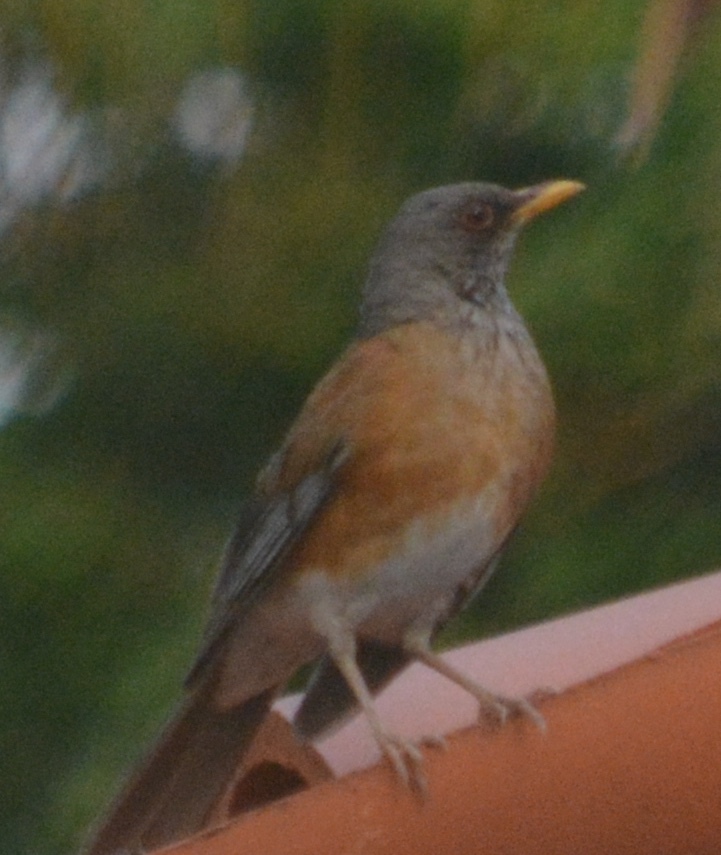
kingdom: Animalia
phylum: Chordata
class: Aves
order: Passeriformes
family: Turdidae
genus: Turdus
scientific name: Turdus rufopalliatus
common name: Rufous-backed robin
